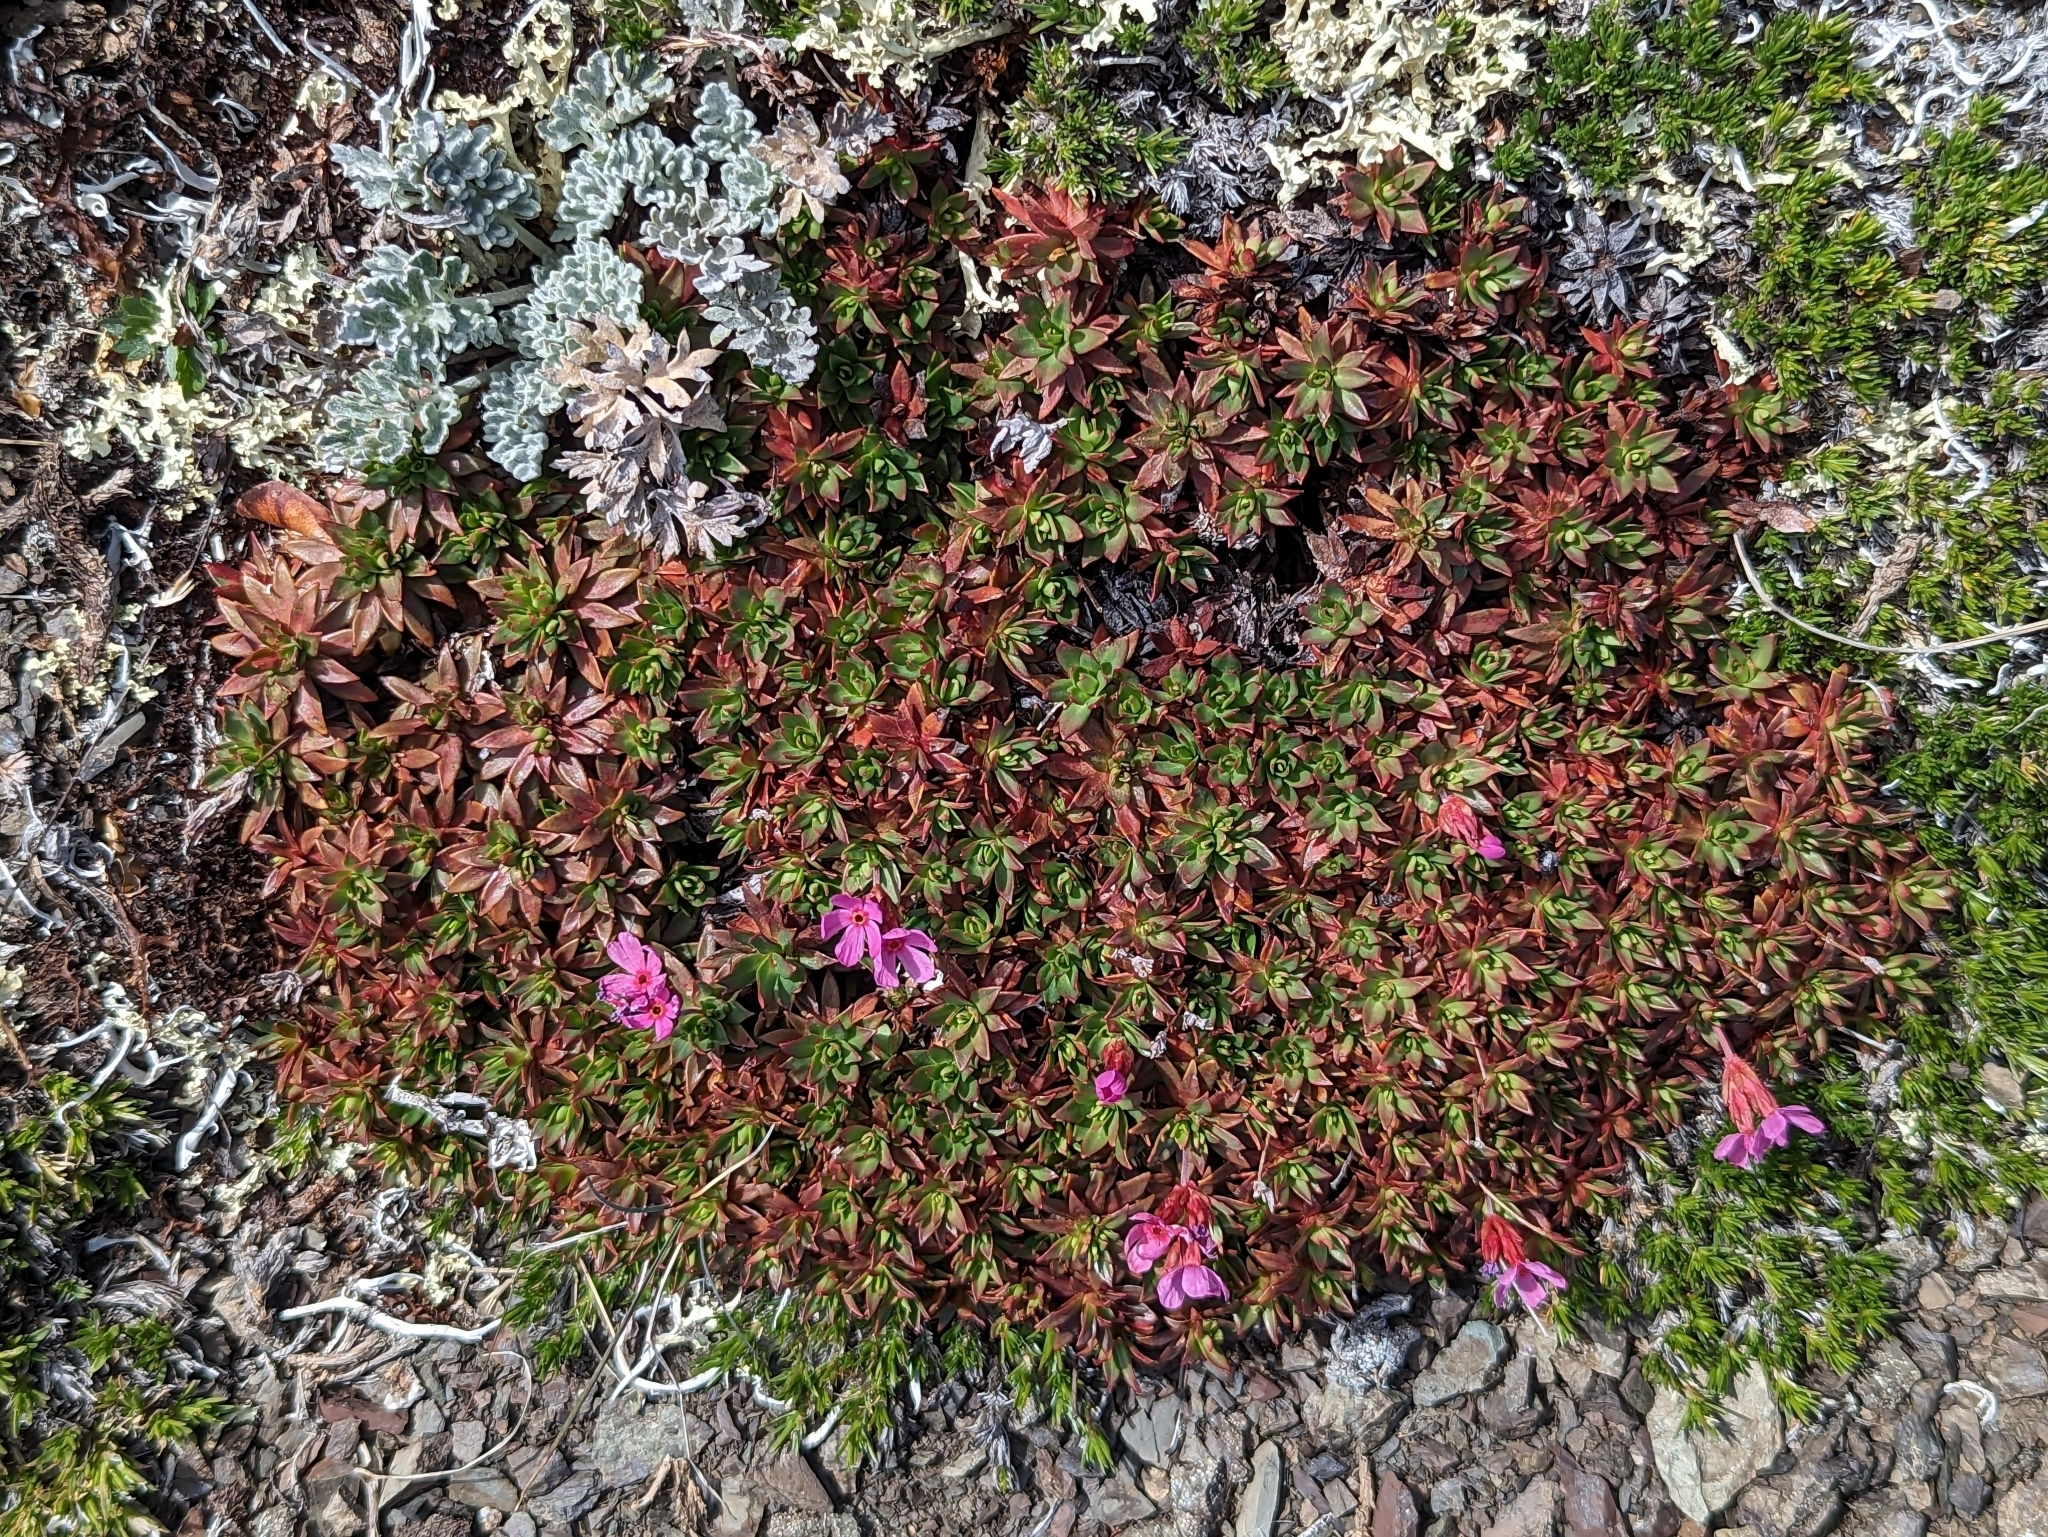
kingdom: Plantae
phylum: Tracheophyta
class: Magnoliopsida
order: Ericales
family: Primulaceae
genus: Androsace
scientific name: Androsace laevigata
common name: Cliff dwarf-primrose
